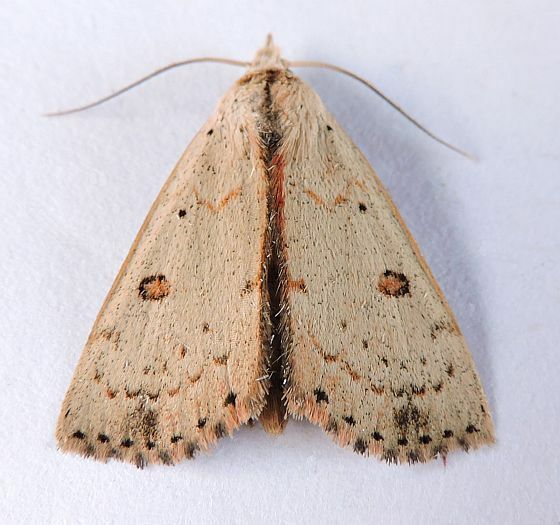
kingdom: Animalia
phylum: Arthropoda
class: Insecta
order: Lepidoptera
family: Erebidae
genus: Scolecocampa
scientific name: Scolecocampa liburna
